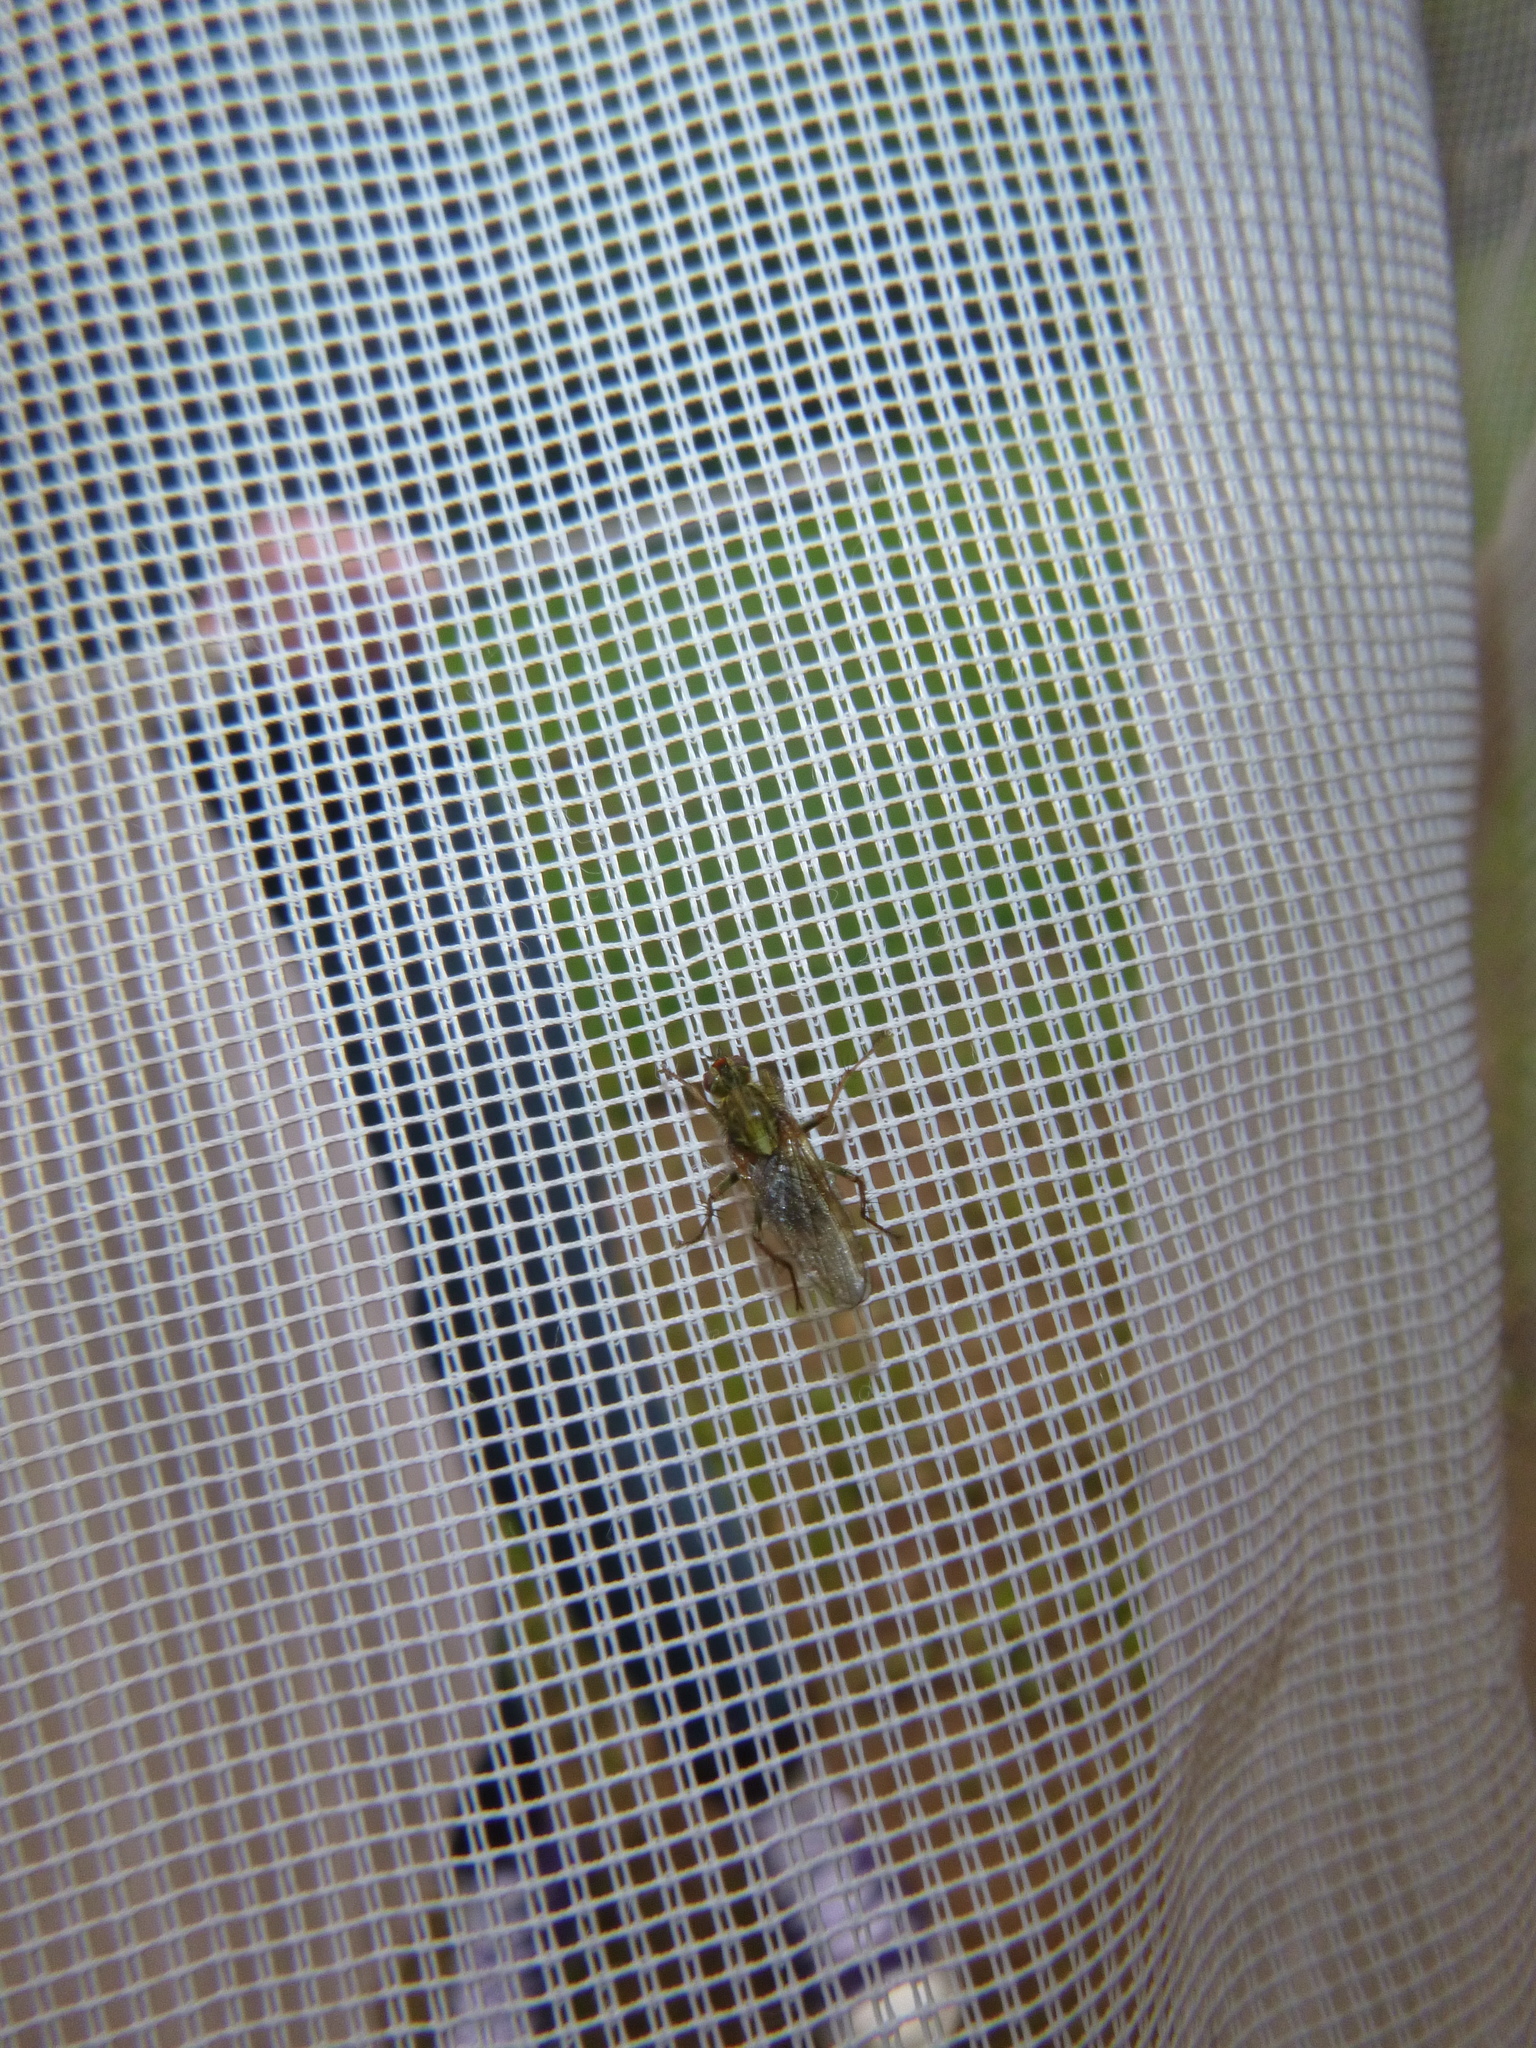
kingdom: Animalia
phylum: Arthropoda
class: Insecta
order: Diptera
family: Scathophagidae
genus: Scathophaga
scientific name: Scathophaga stercoraria
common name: Yellow dung fly
